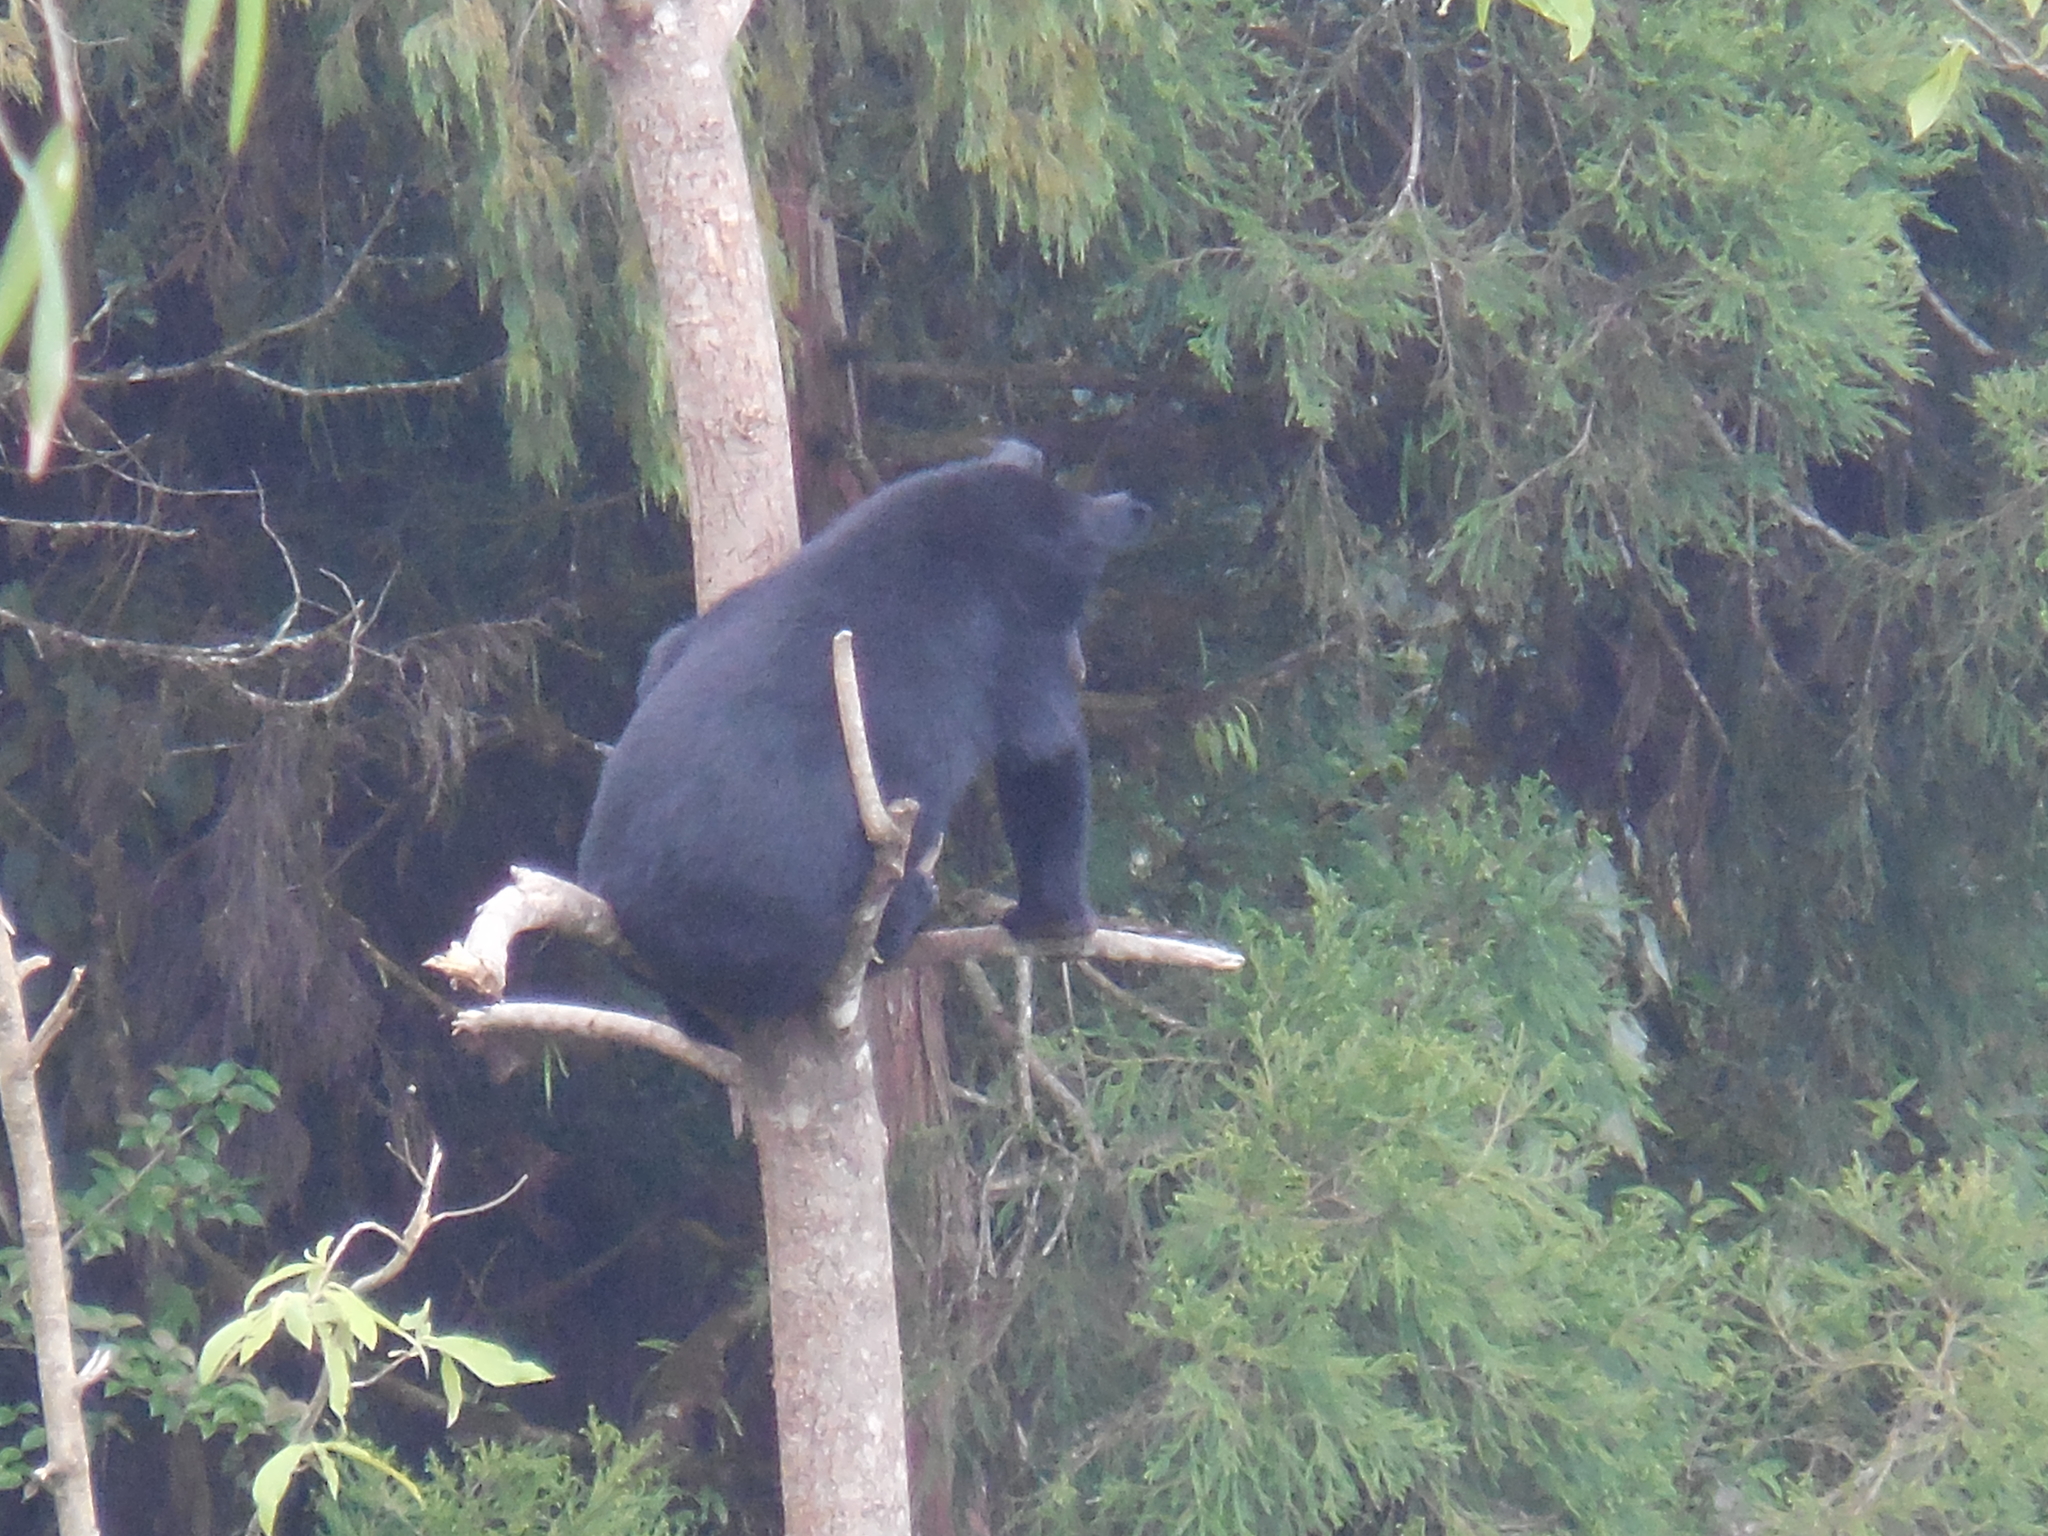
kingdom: Animalia
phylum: Chordata
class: Mammalia
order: Carnivora
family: Ursidae
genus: Ursus
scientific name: Ursus thibetanus
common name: Asiatic black bear
